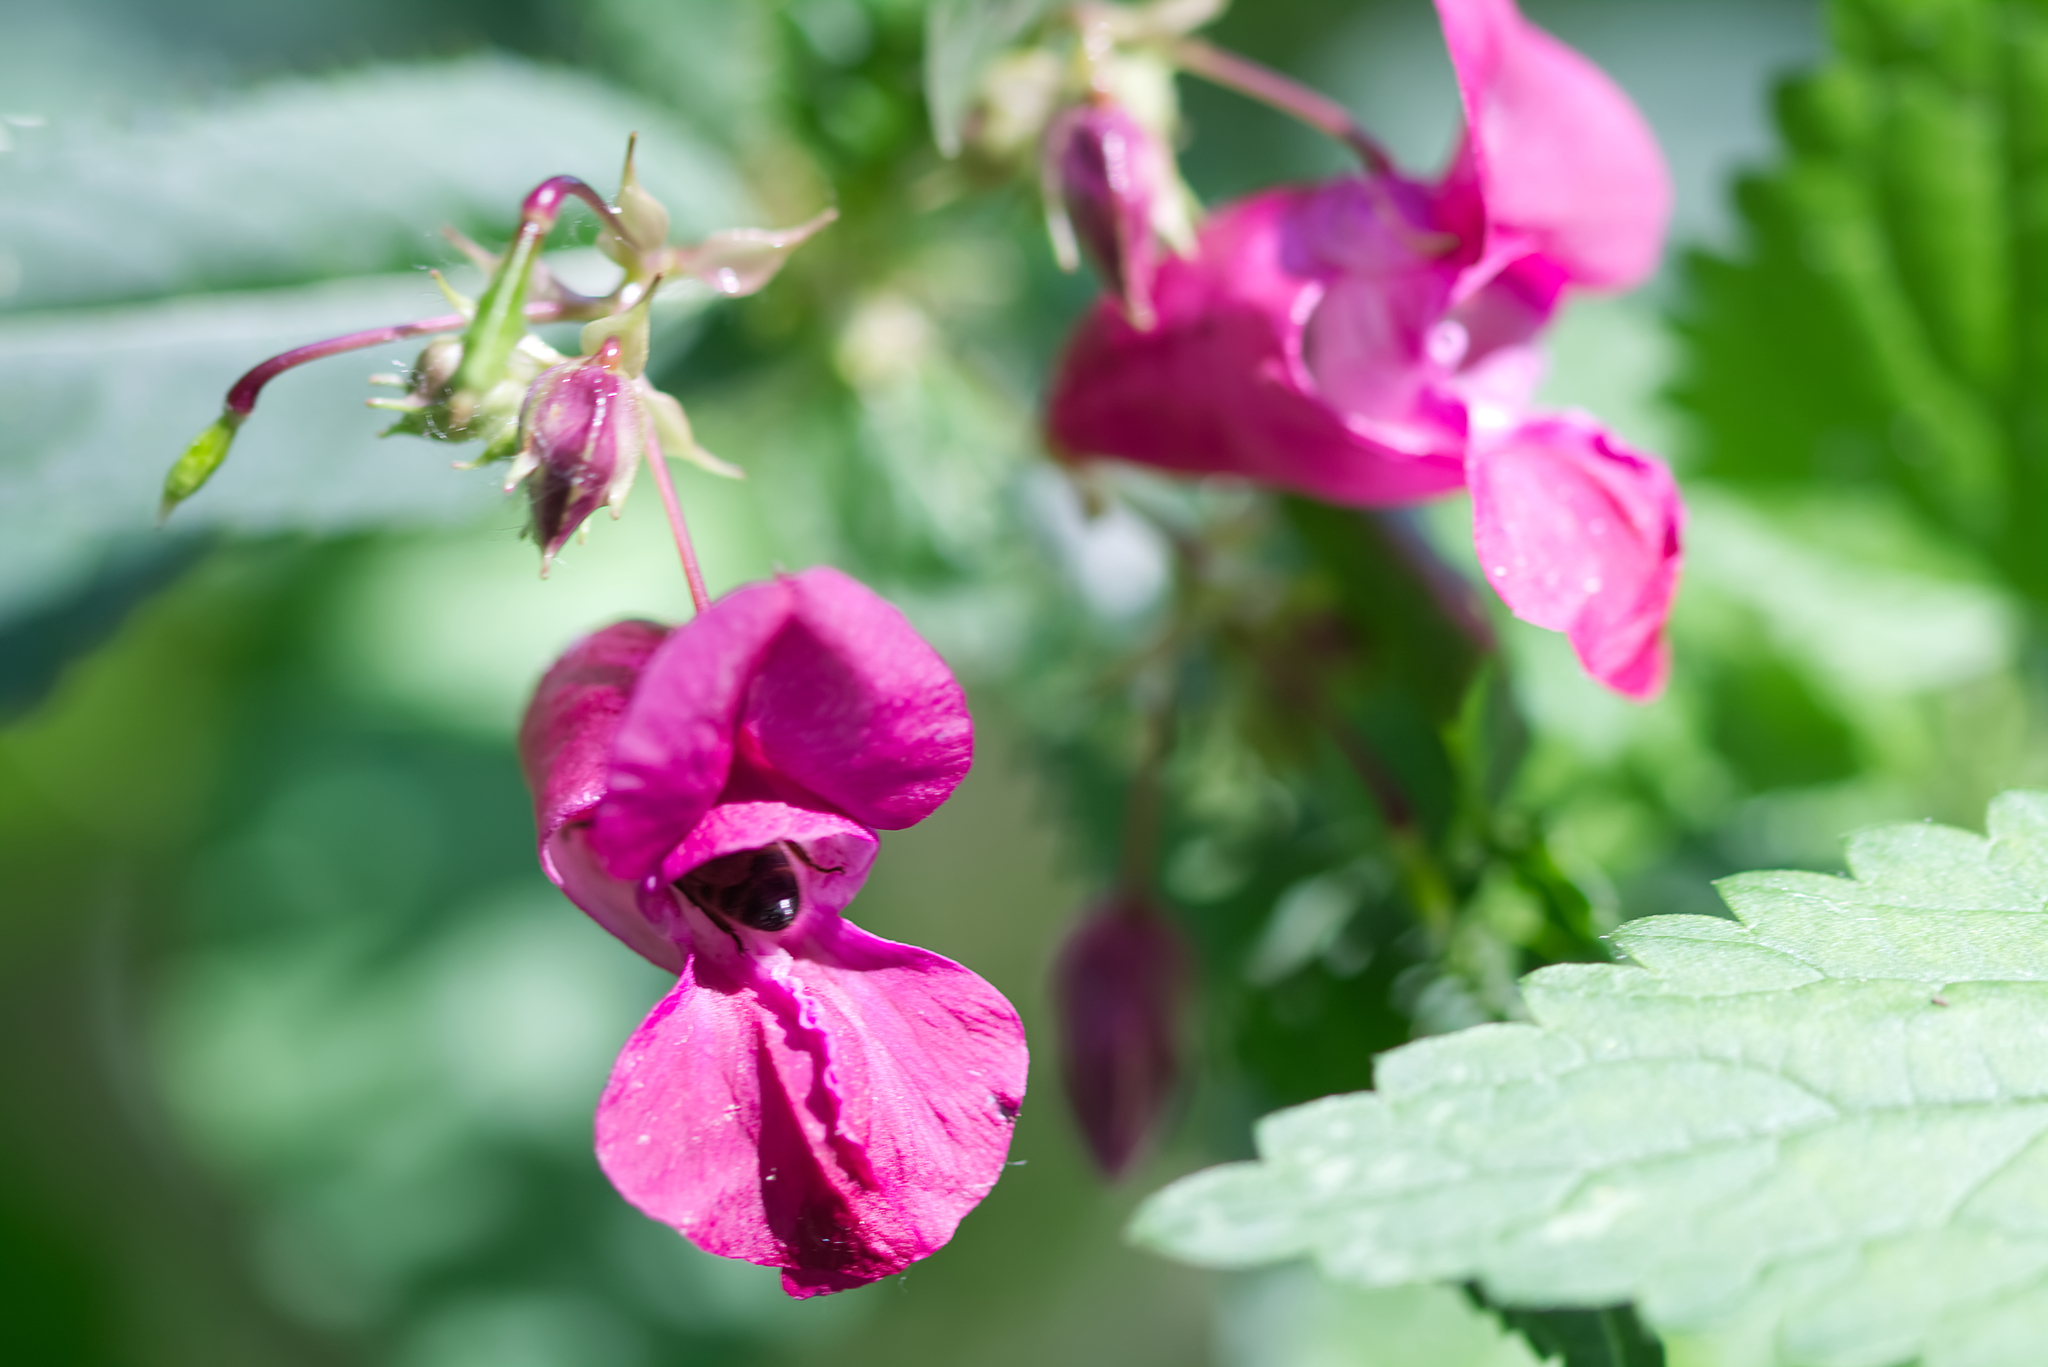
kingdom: Plantae
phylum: Tracheophyta
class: Magnoliopsida
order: Ericales
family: Balsaminaceae
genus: Impatiens
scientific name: Impatiens glandulifera
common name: Himalayan balsam
